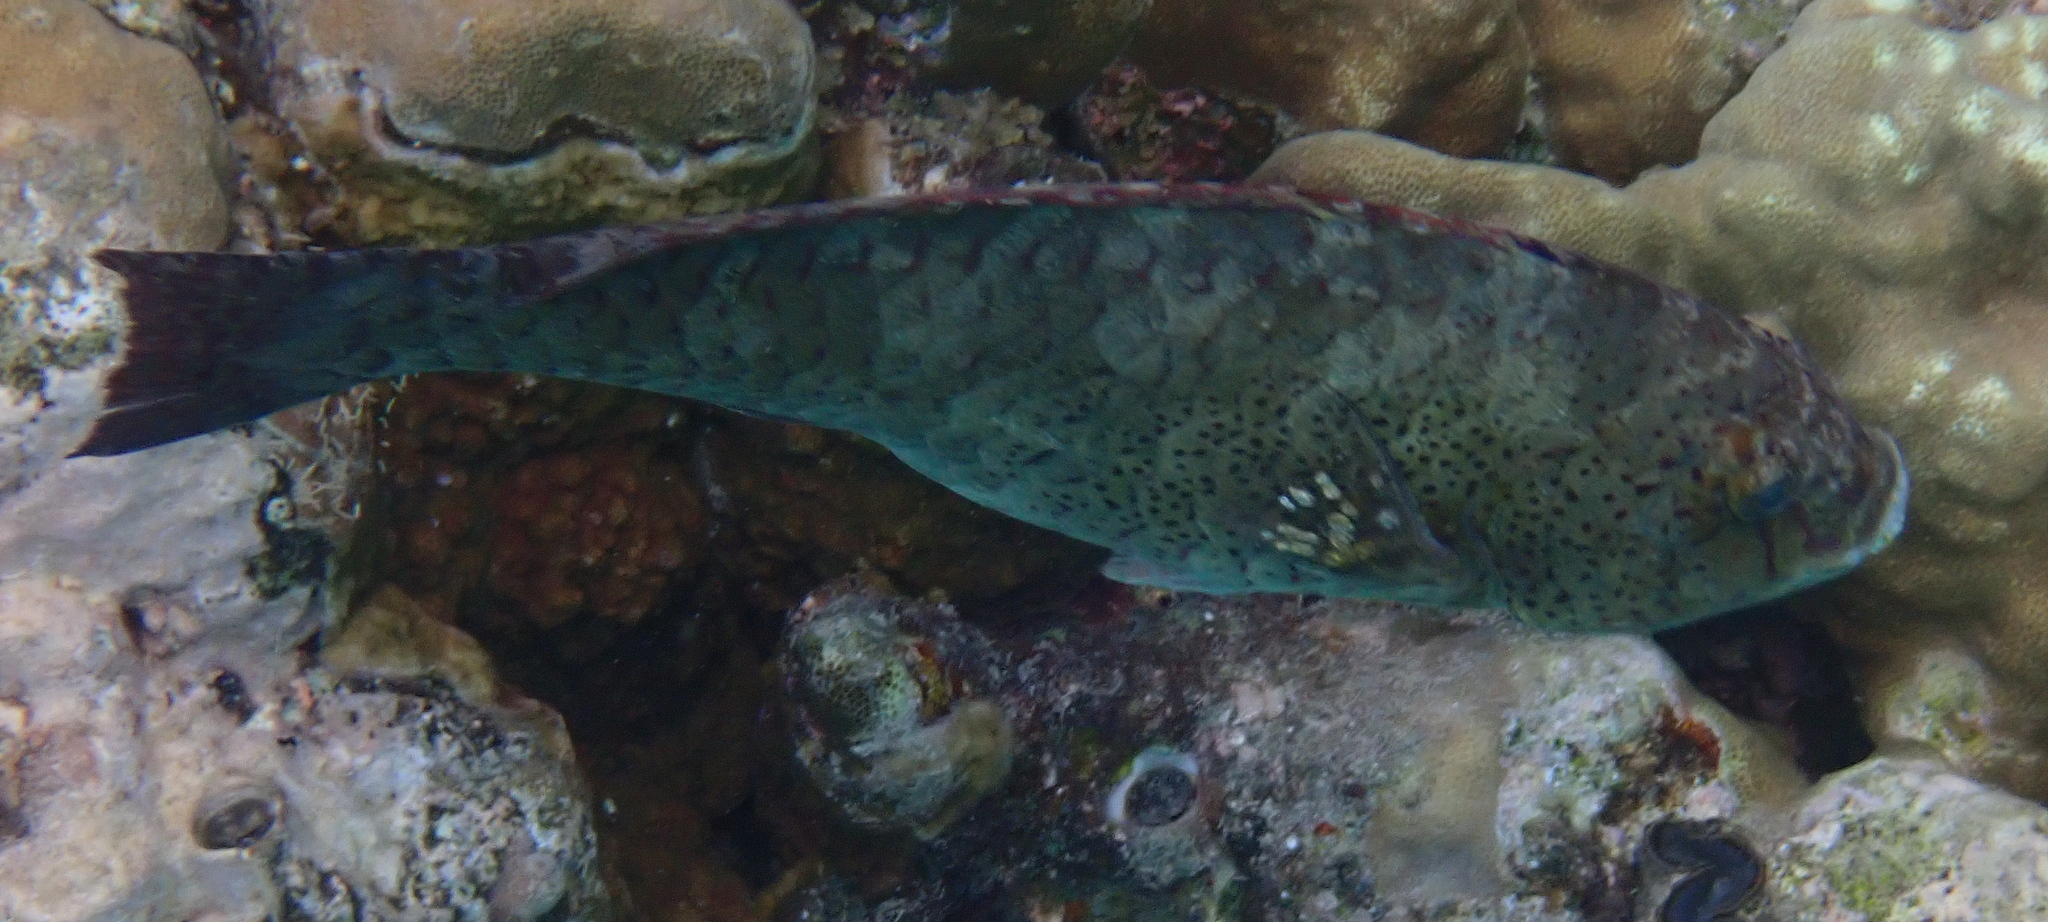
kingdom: Animalia
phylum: Chordata
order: Perciformes
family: Scaridae
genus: Calotomus
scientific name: Calotomus viridescens
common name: Dotted parrotfish
